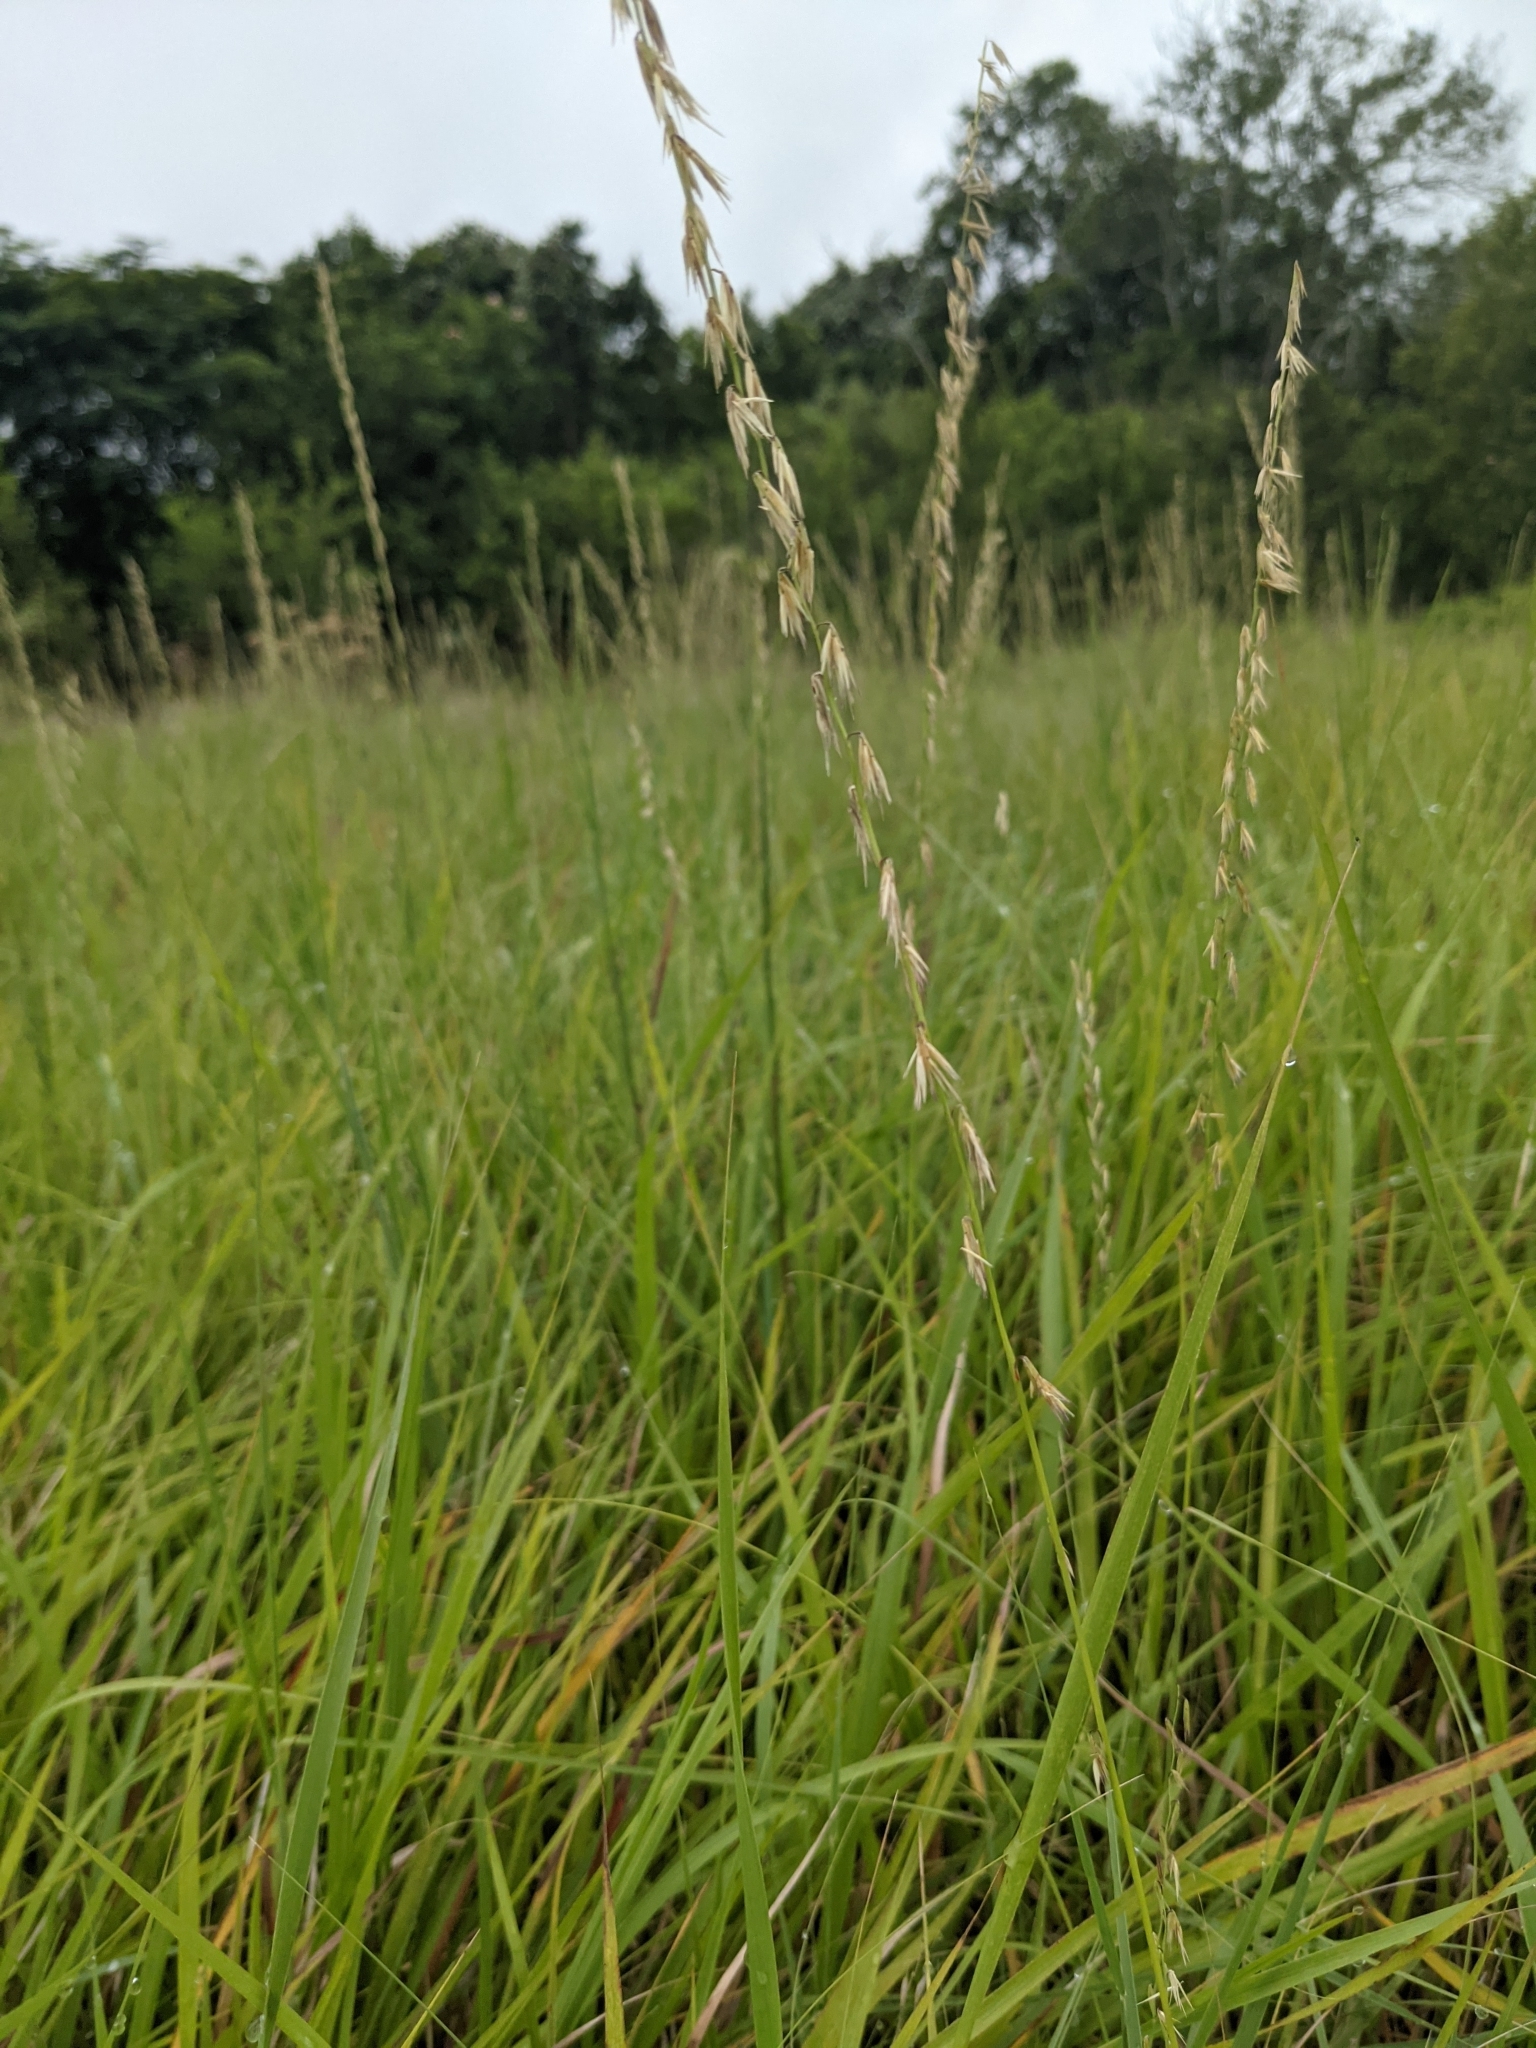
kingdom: Plantae
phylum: Tracheophyta
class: Liliopsida
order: Poales
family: Poaceae
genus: Bouteloua
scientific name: Bouteloua curtipendula
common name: Side-oats grama
